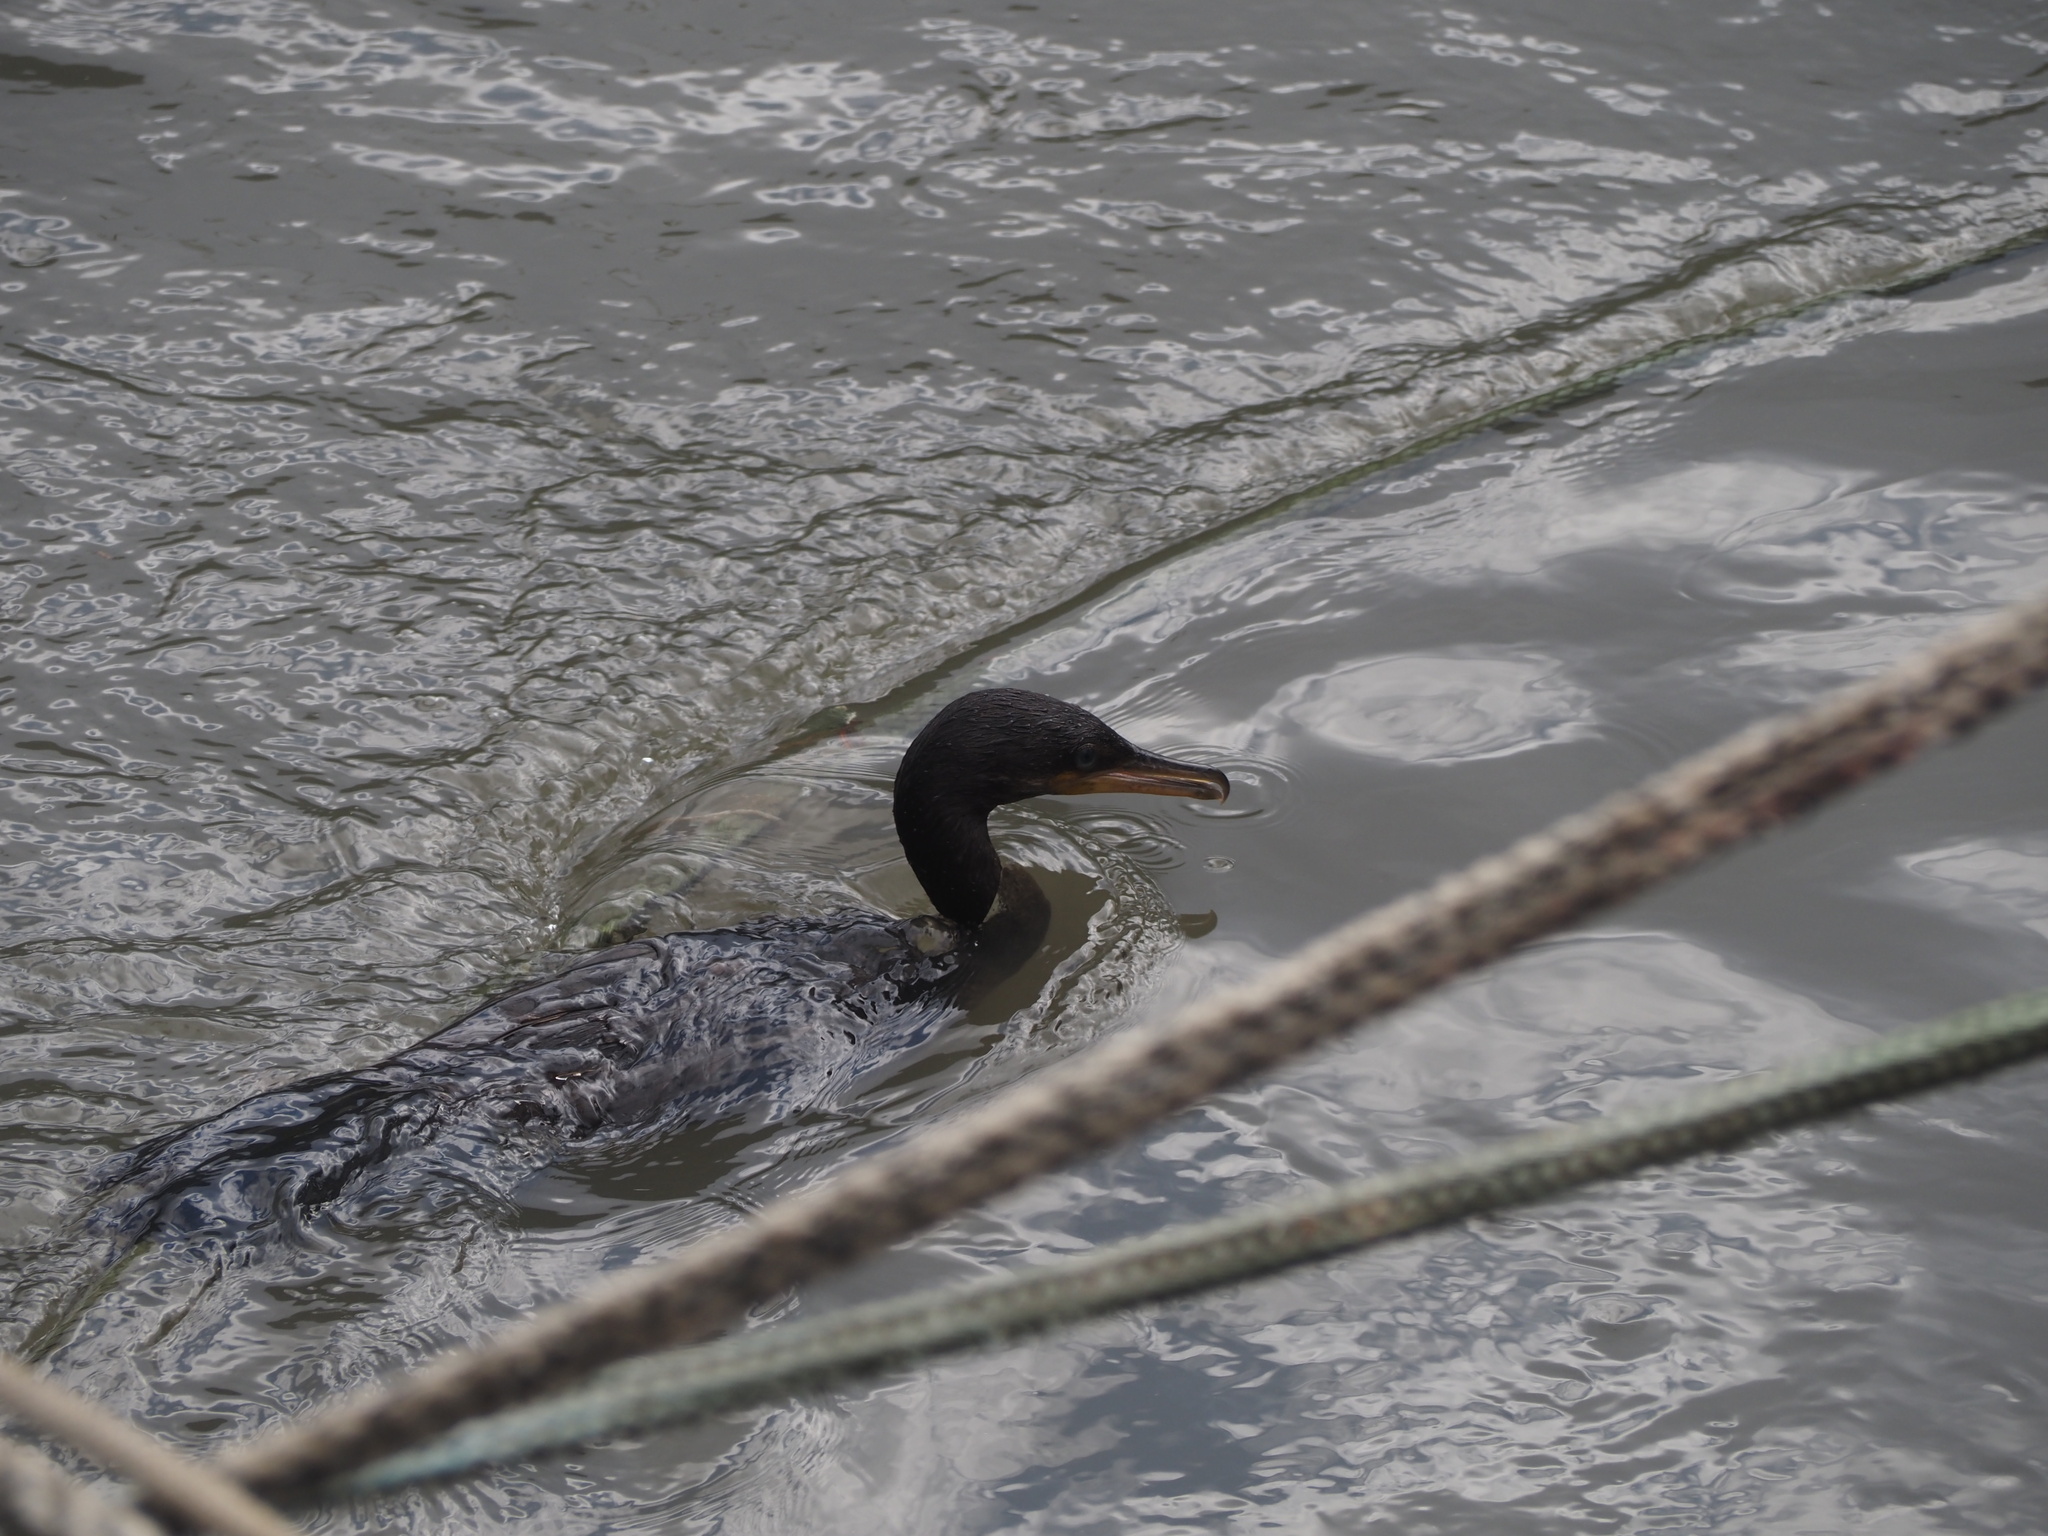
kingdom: Animalia
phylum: Chordata
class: Aves
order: Suliformes
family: Phalacrocoracidae
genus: Phalacrocorax
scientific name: Phalacrocorax brasilianus
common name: Neotropic cormorant
